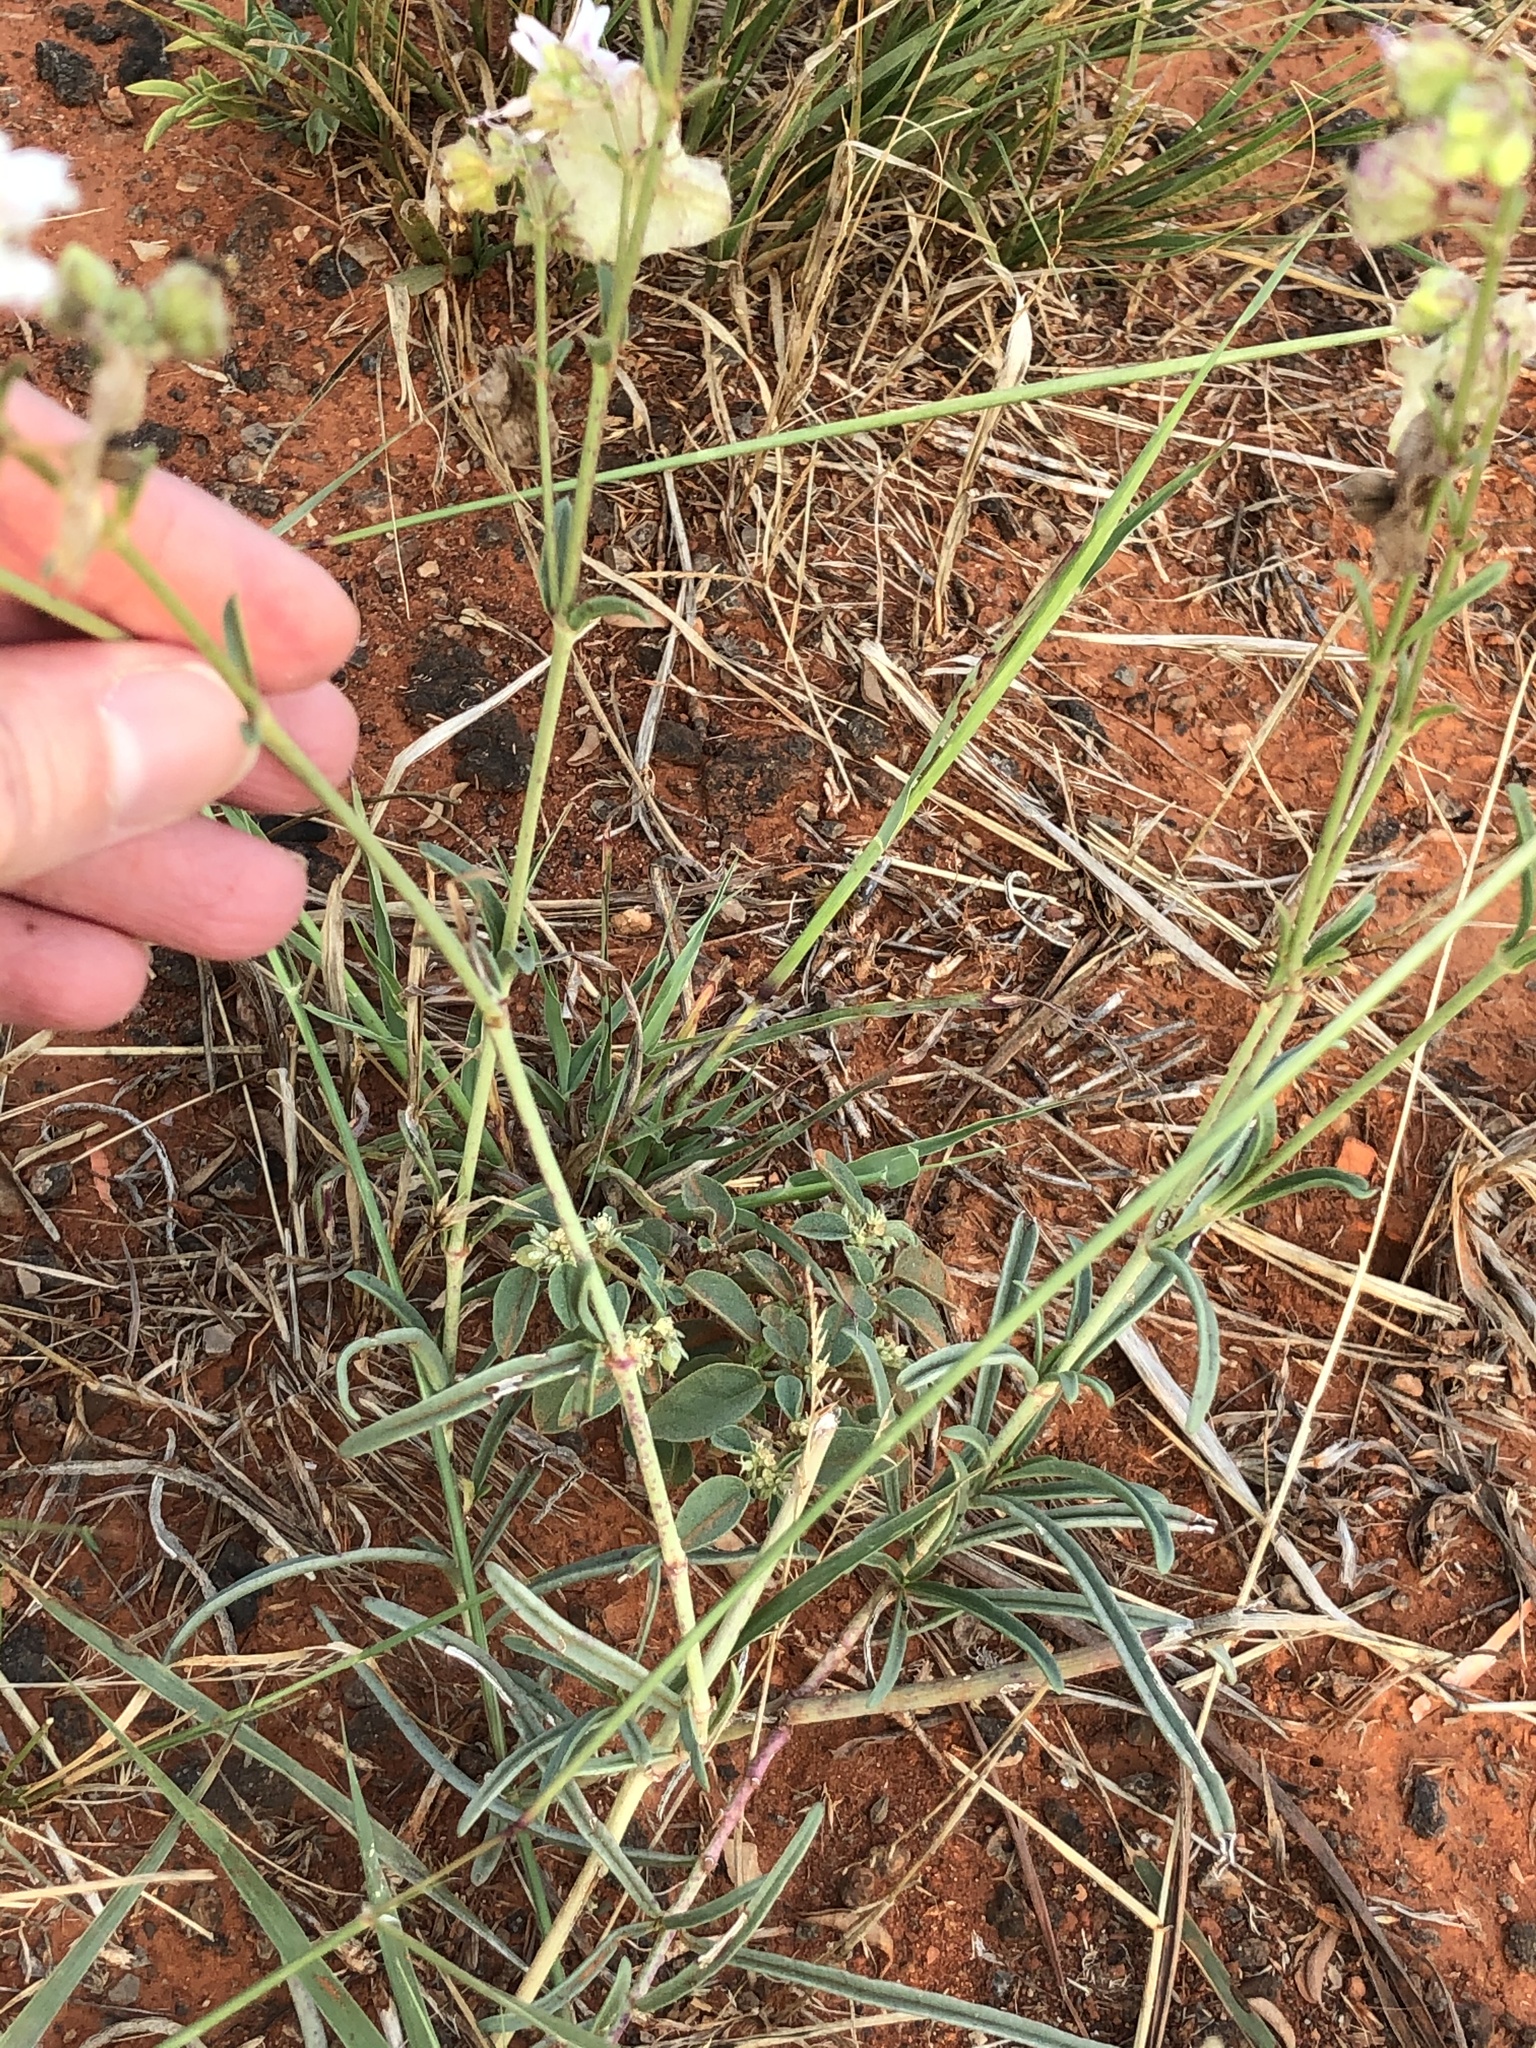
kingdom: Plantae
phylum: Tracheophyta
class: Magnoliopsida
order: Caryophyllales
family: Nyctaginaceae
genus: Mirabilis
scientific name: Mirabilis linearis
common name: Linear-leaved four-o'clock
